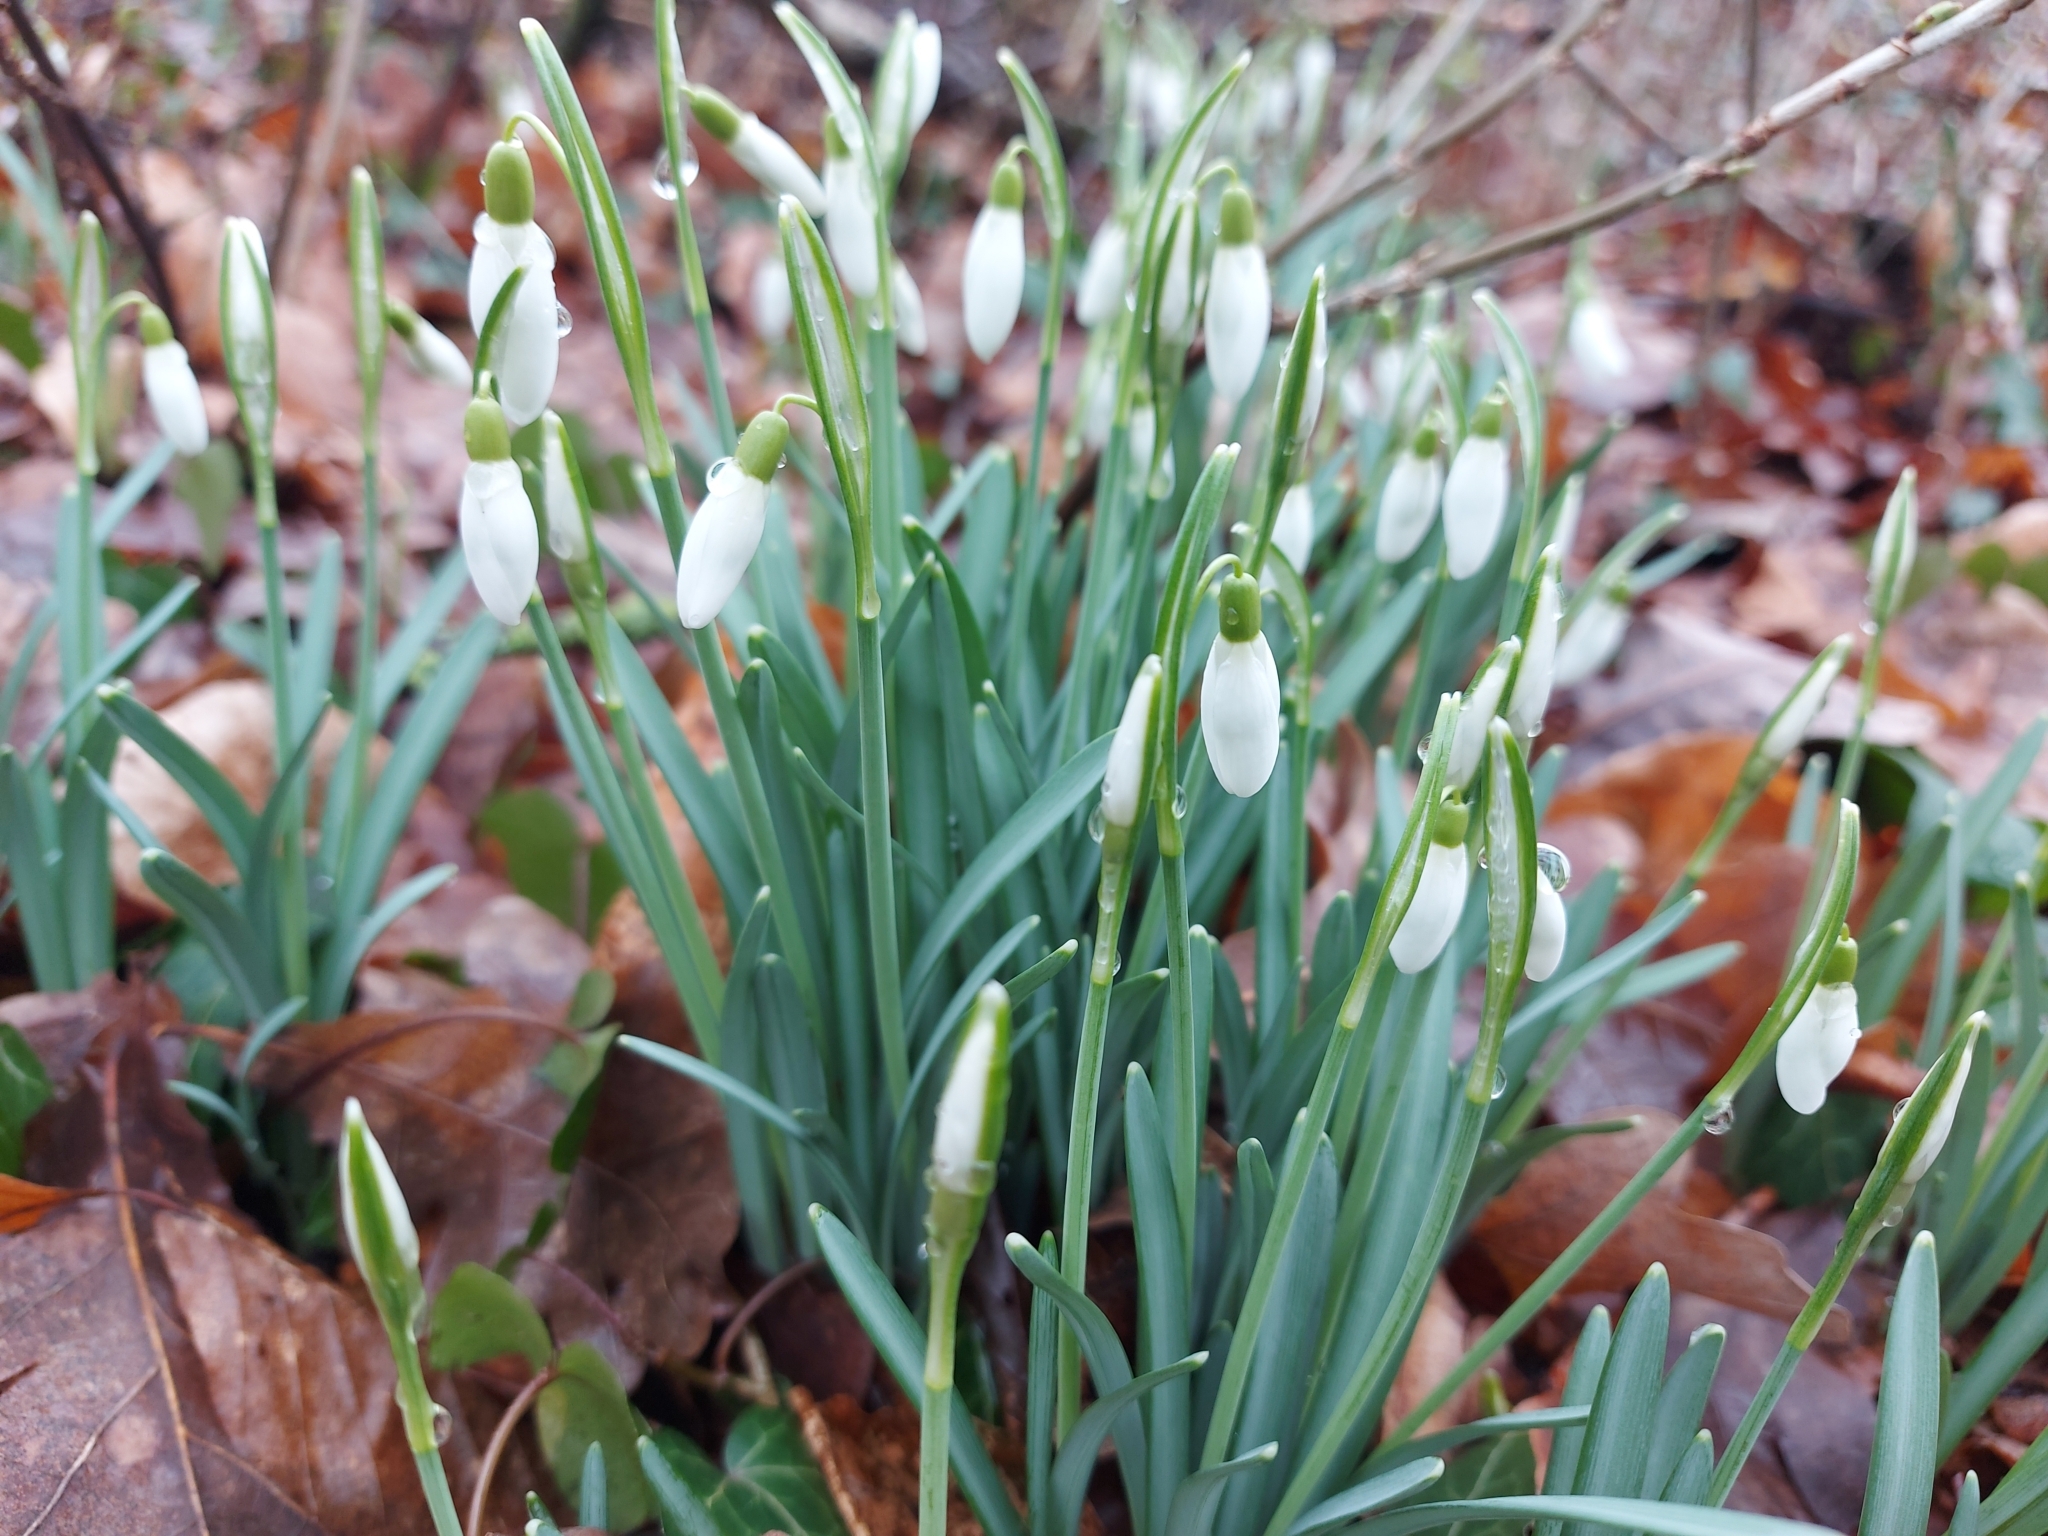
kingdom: Plantae
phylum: Tracheophyta
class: Liliopsida
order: Asparagales
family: Amaryllidaceae
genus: Galanthus
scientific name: Galanthus nivalis
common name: Snowdrop
